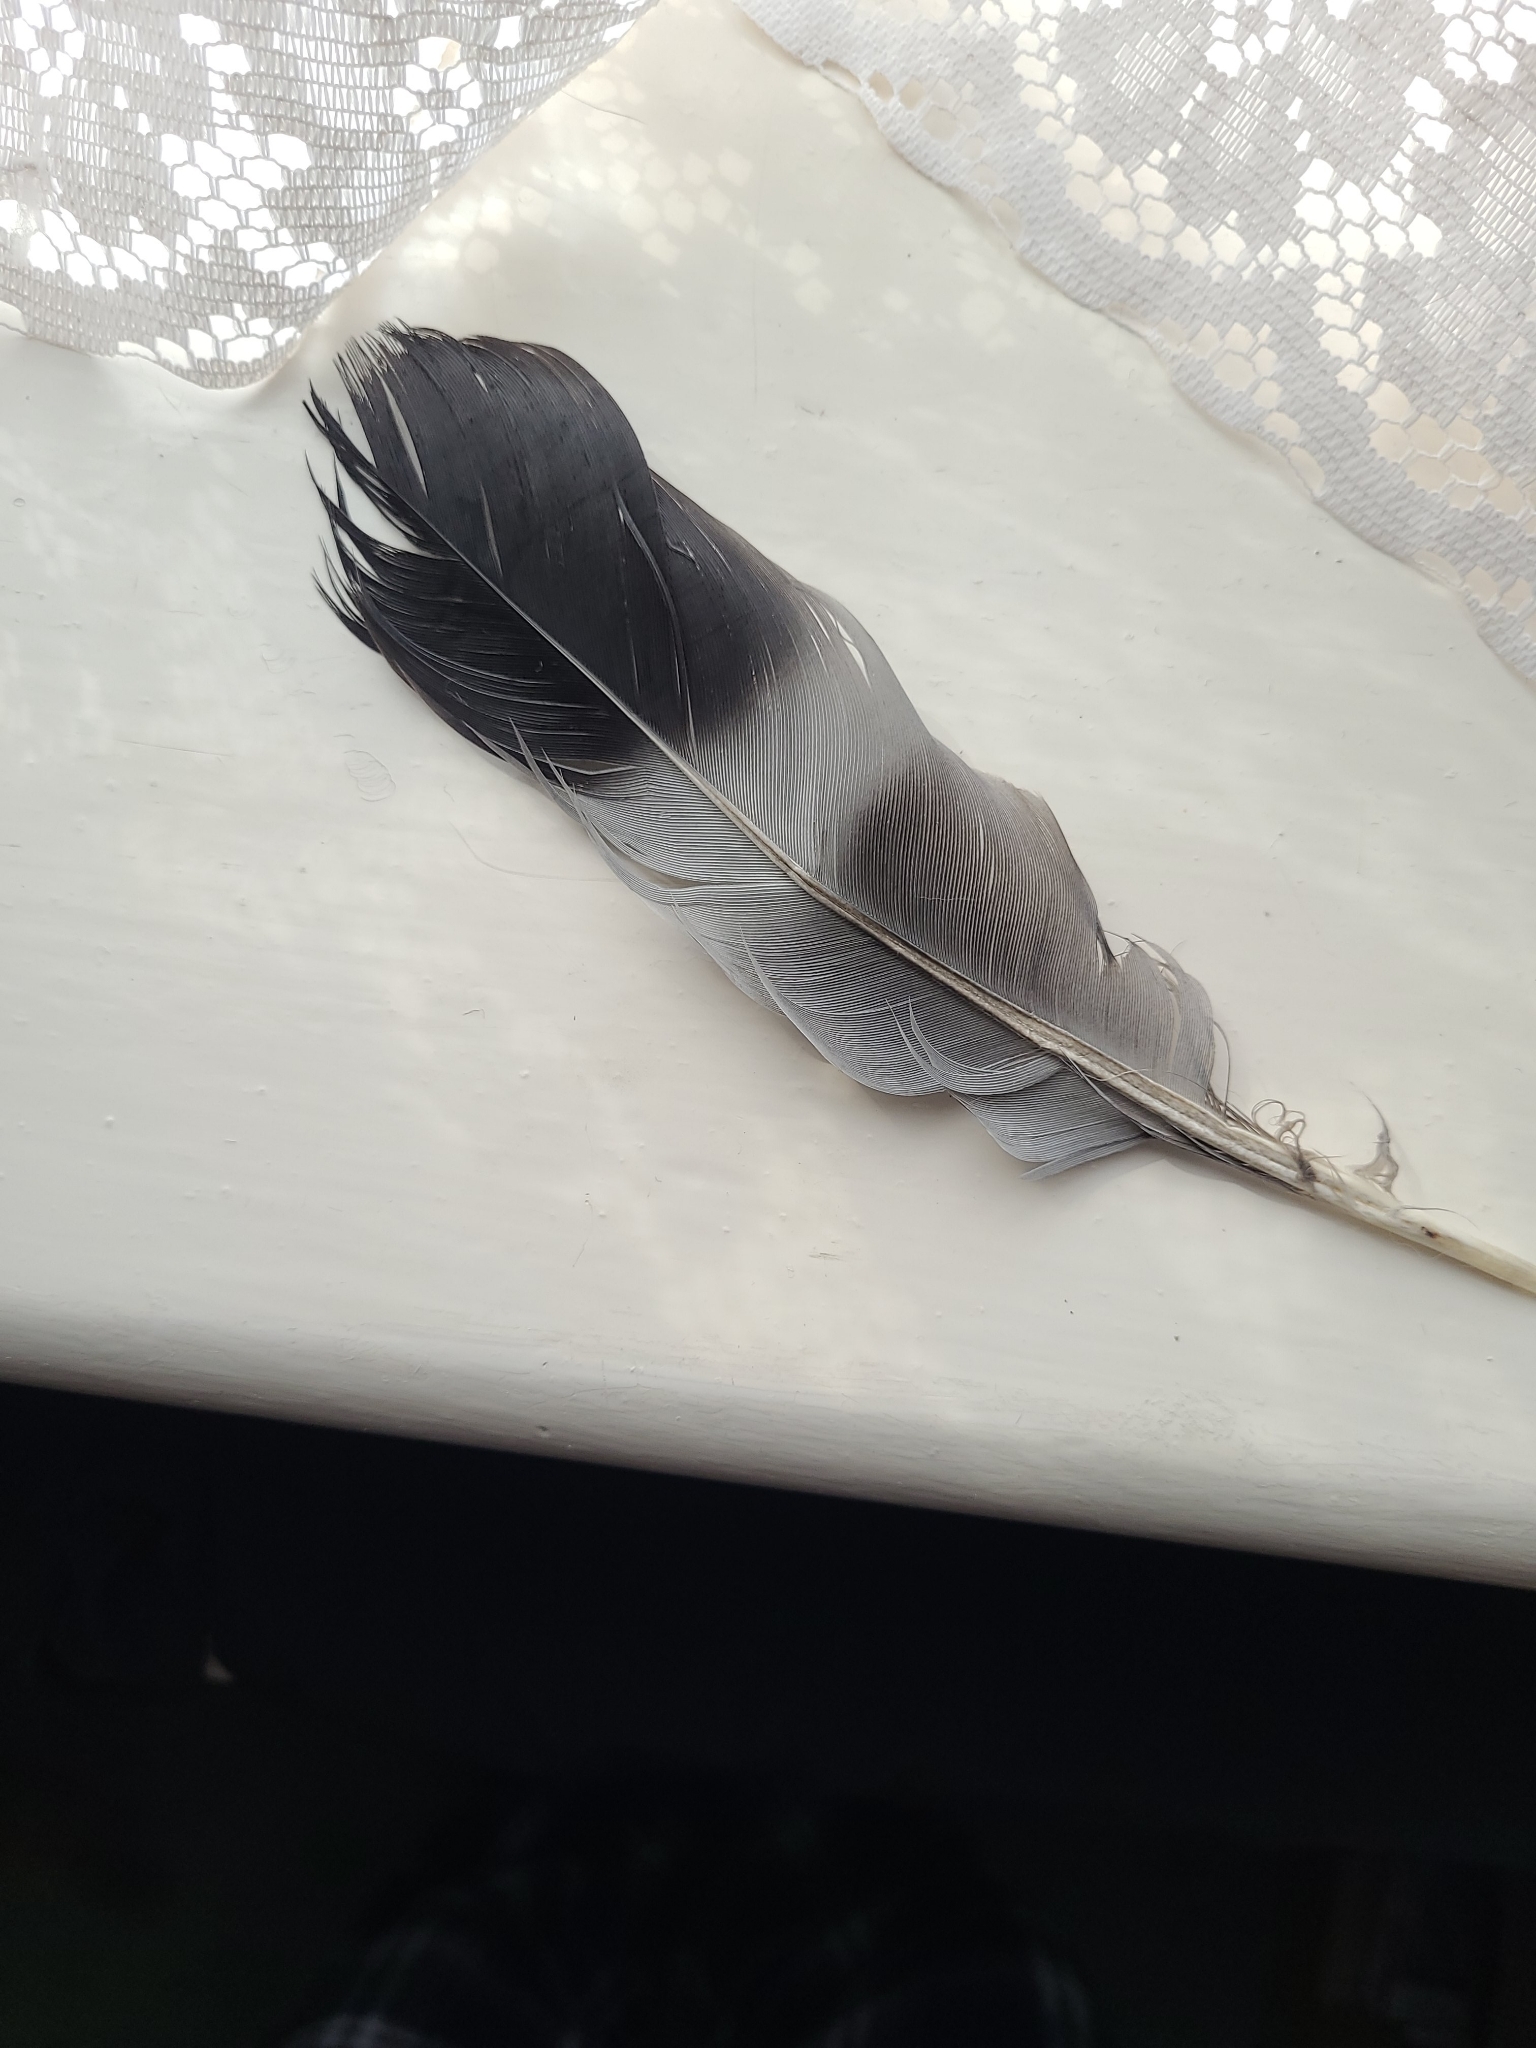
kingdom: Animalia
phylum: Chordata
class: Aves
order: Columbiformes
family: Columbidae
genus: Columba
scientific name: Columba palumbus
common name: Common wood pigeon
